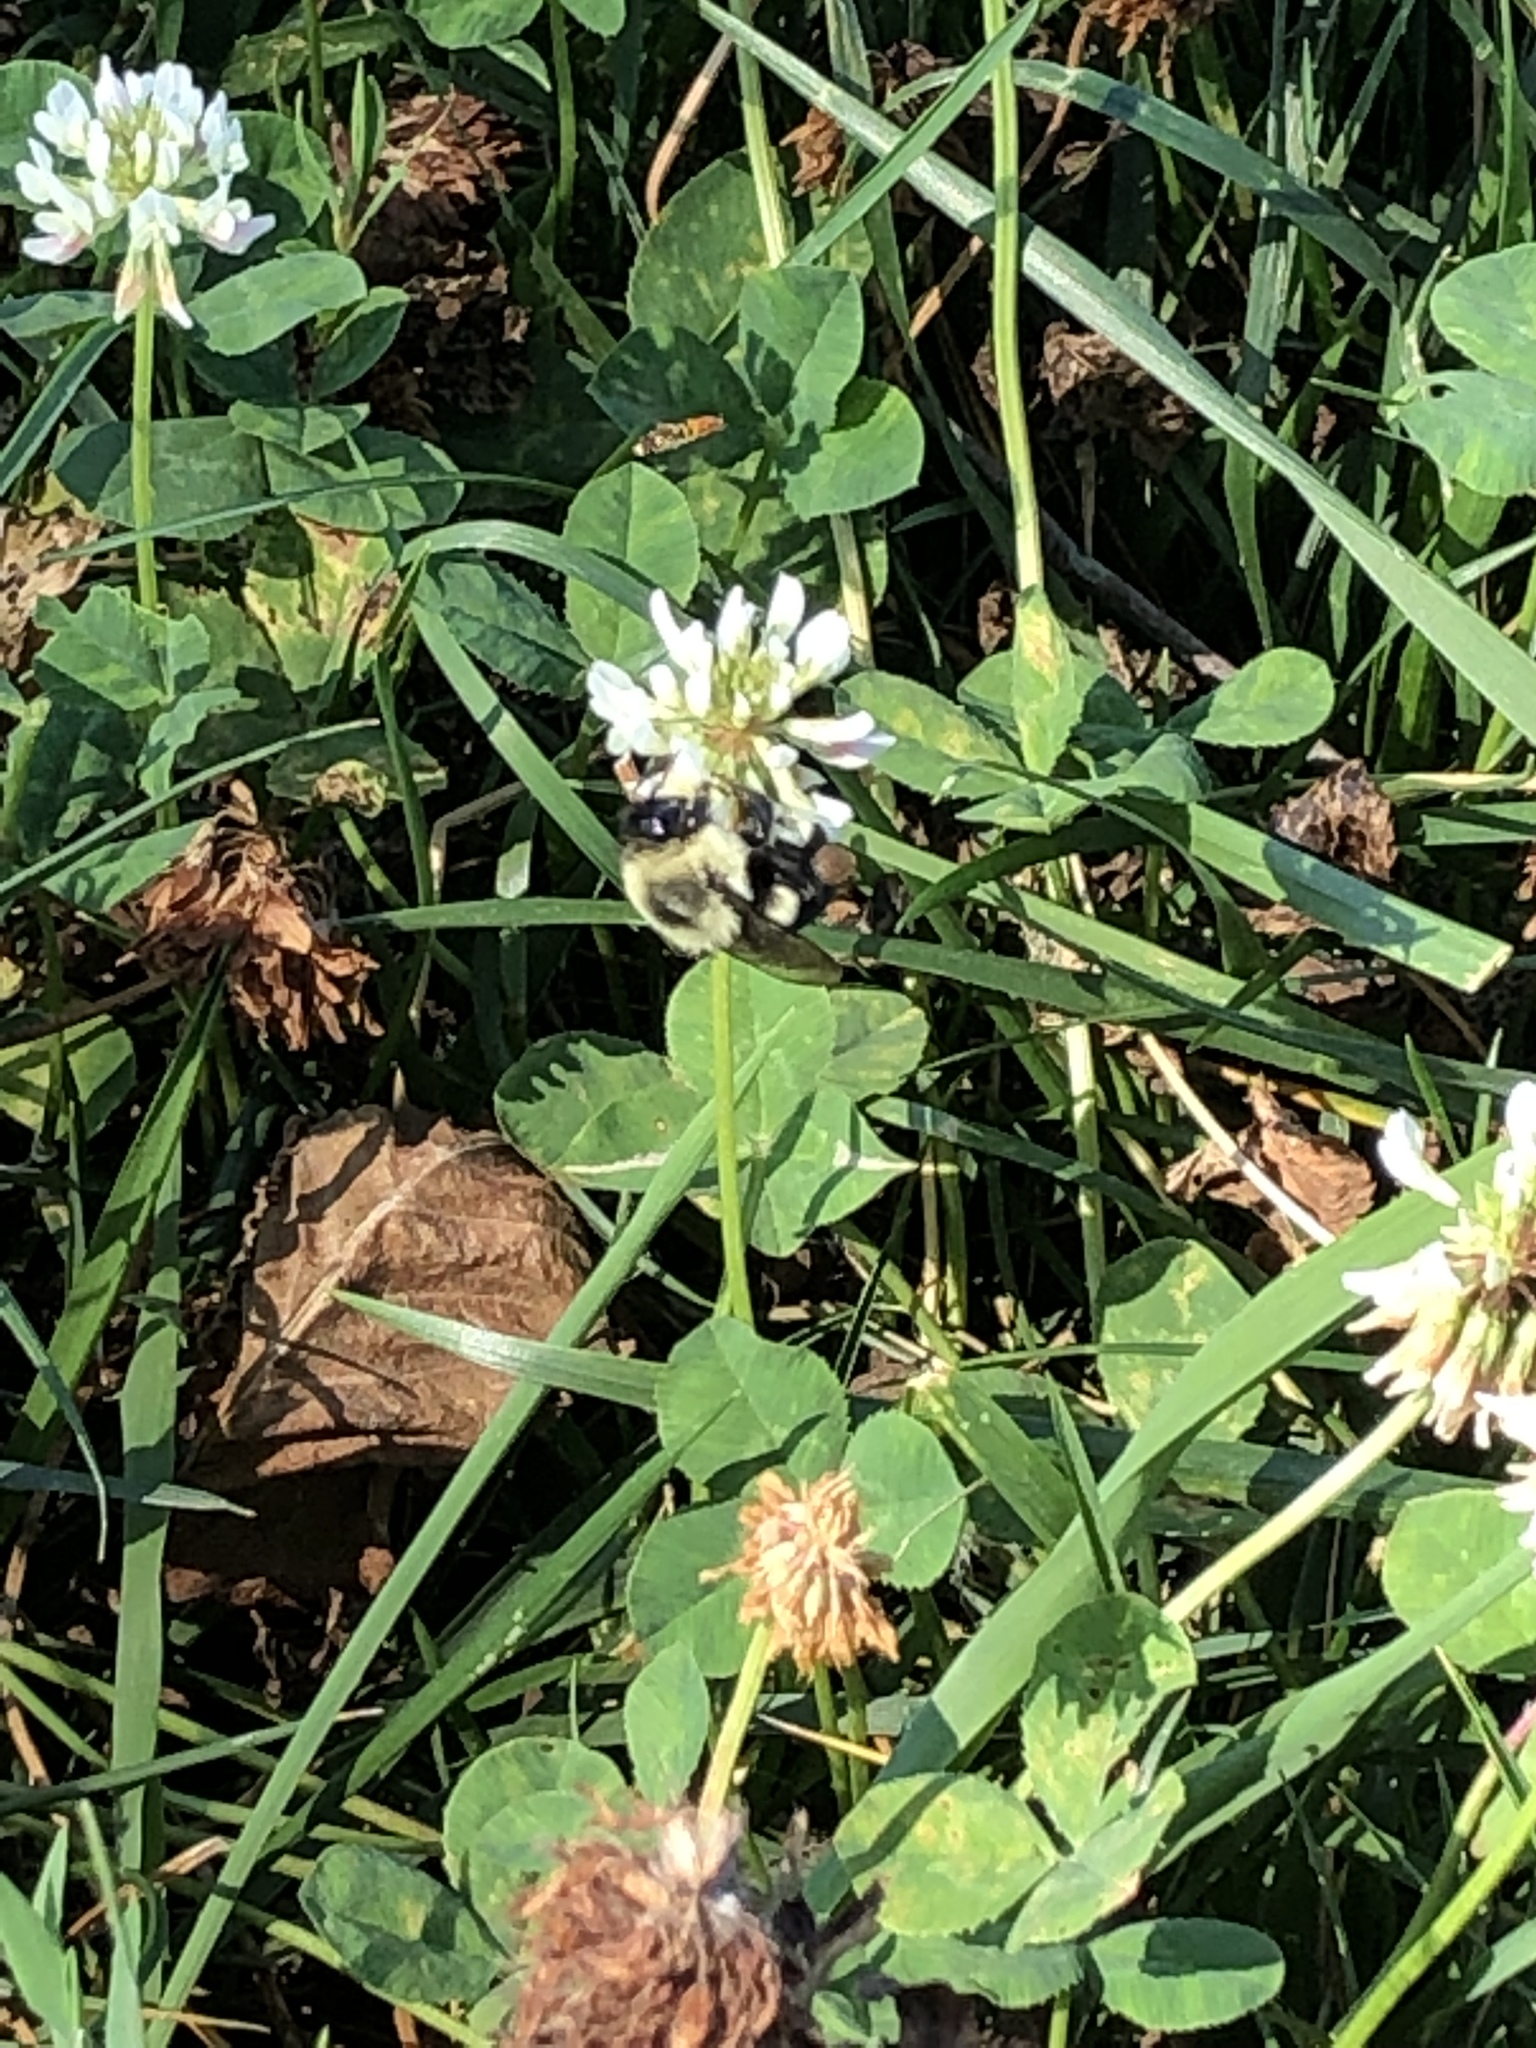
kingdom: Plantae
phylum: Tracheophyta
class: Magnoliopsida
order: Fabales
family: Fabaceae
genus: Trifolium
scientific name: Trifolium repens
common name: White clover
